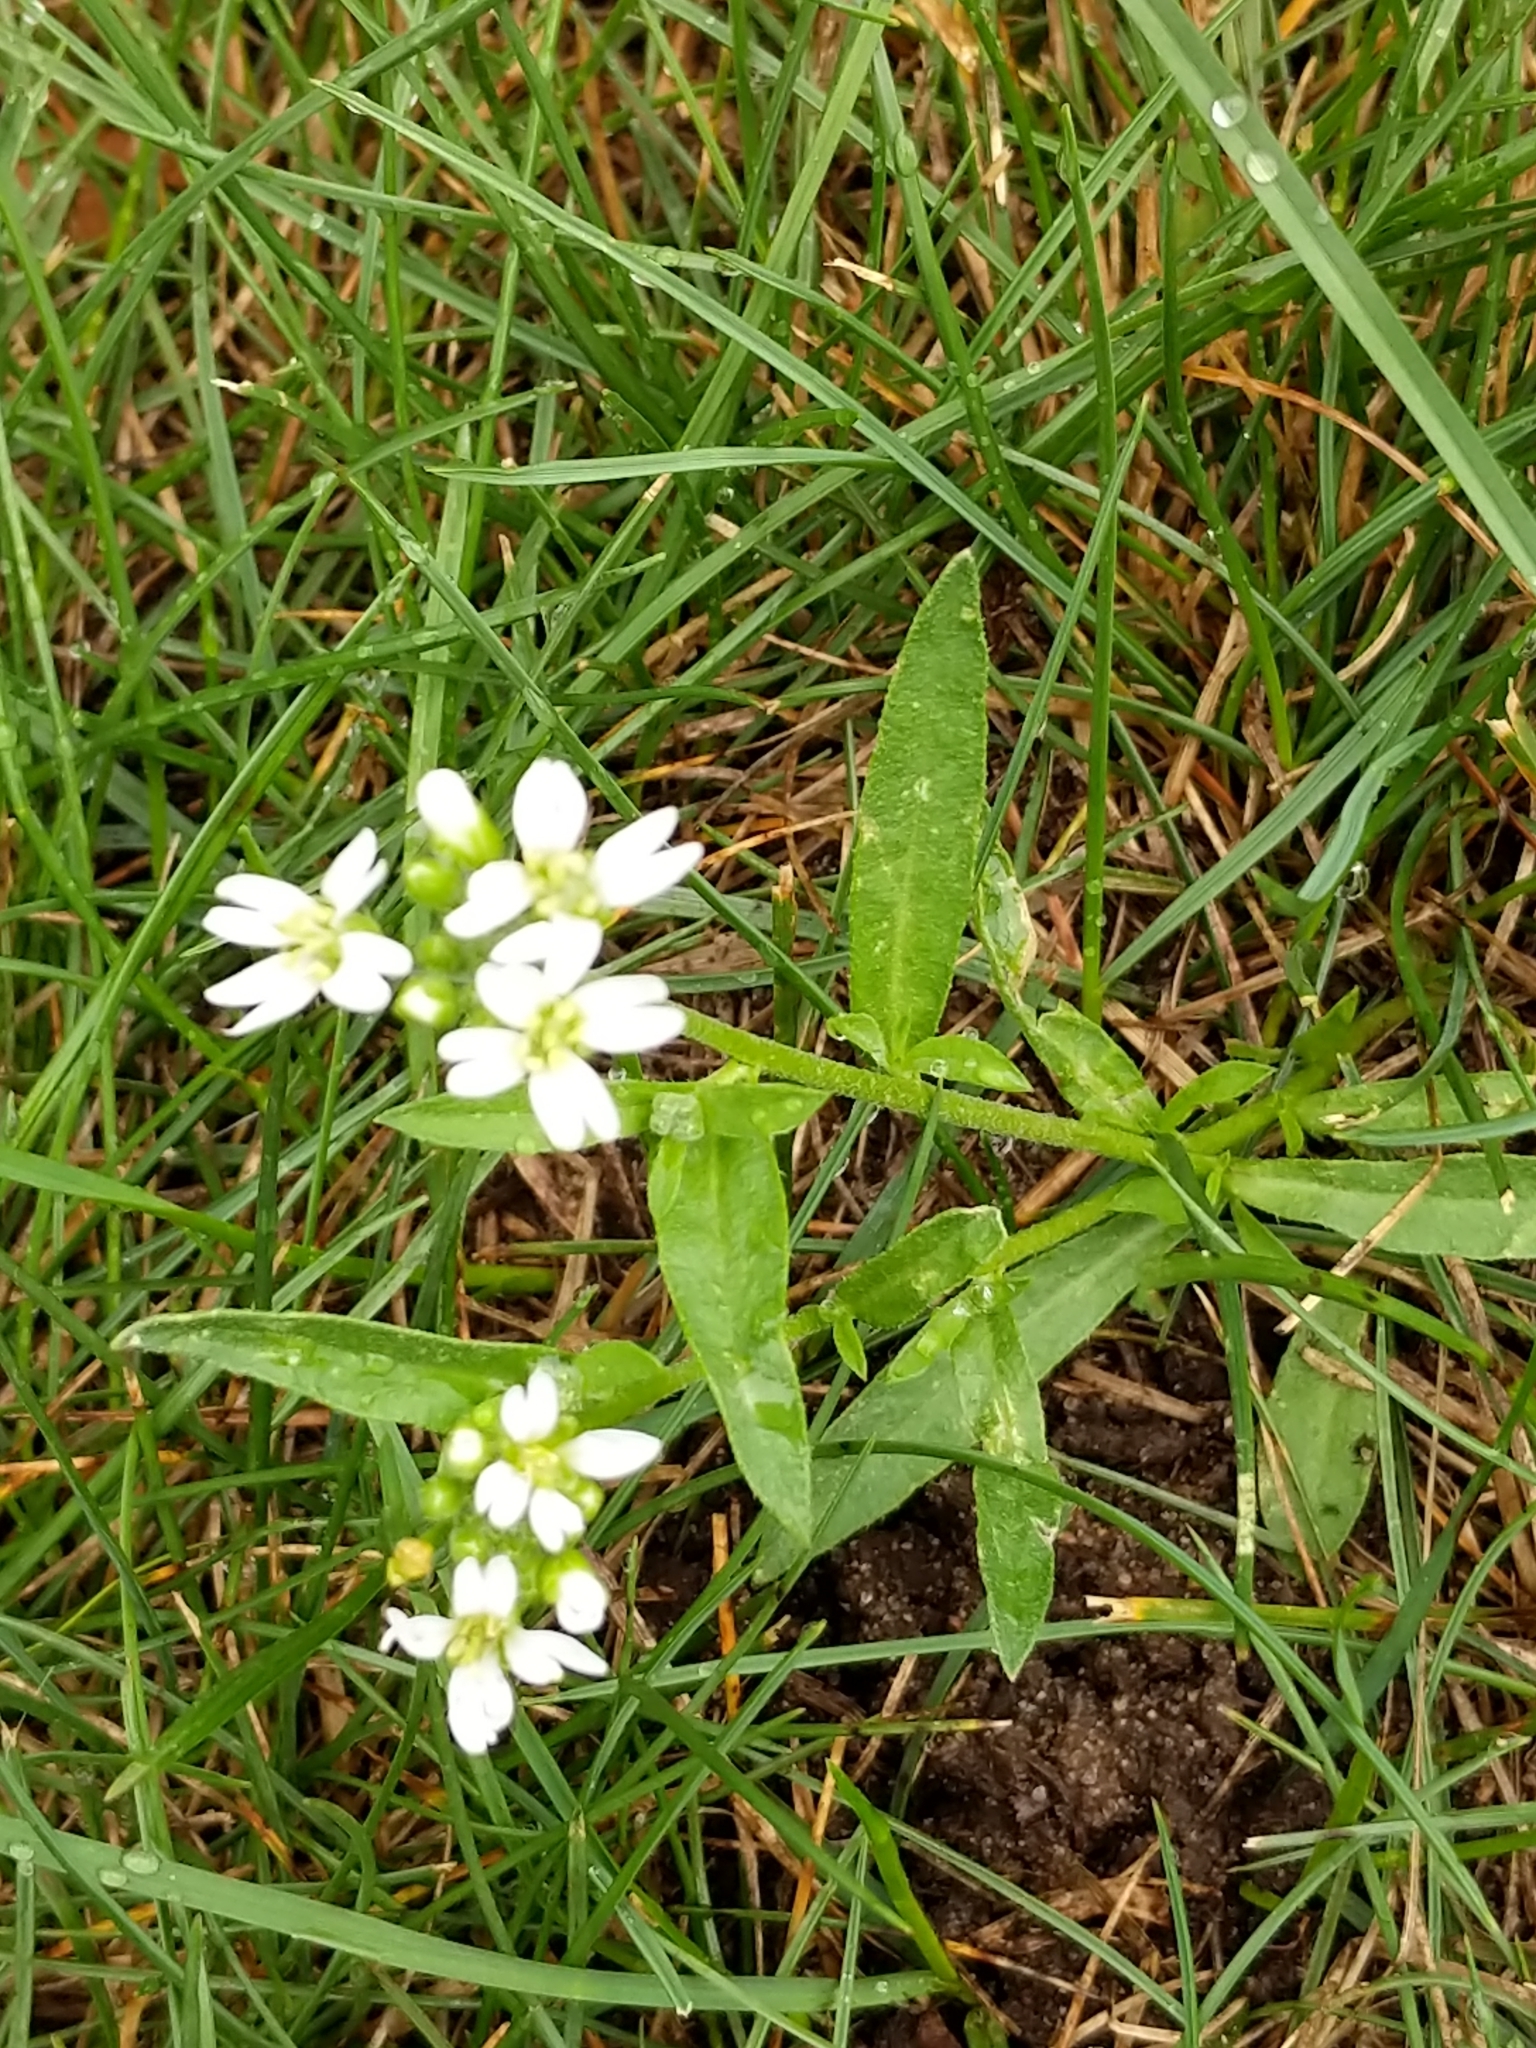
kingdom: Plantae
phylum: Tracheophyta
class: Magnoliopsida
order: Brassicales
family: Brassicaceae
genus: Berteroa
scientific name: Berteroa incana
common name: Hoary alison
